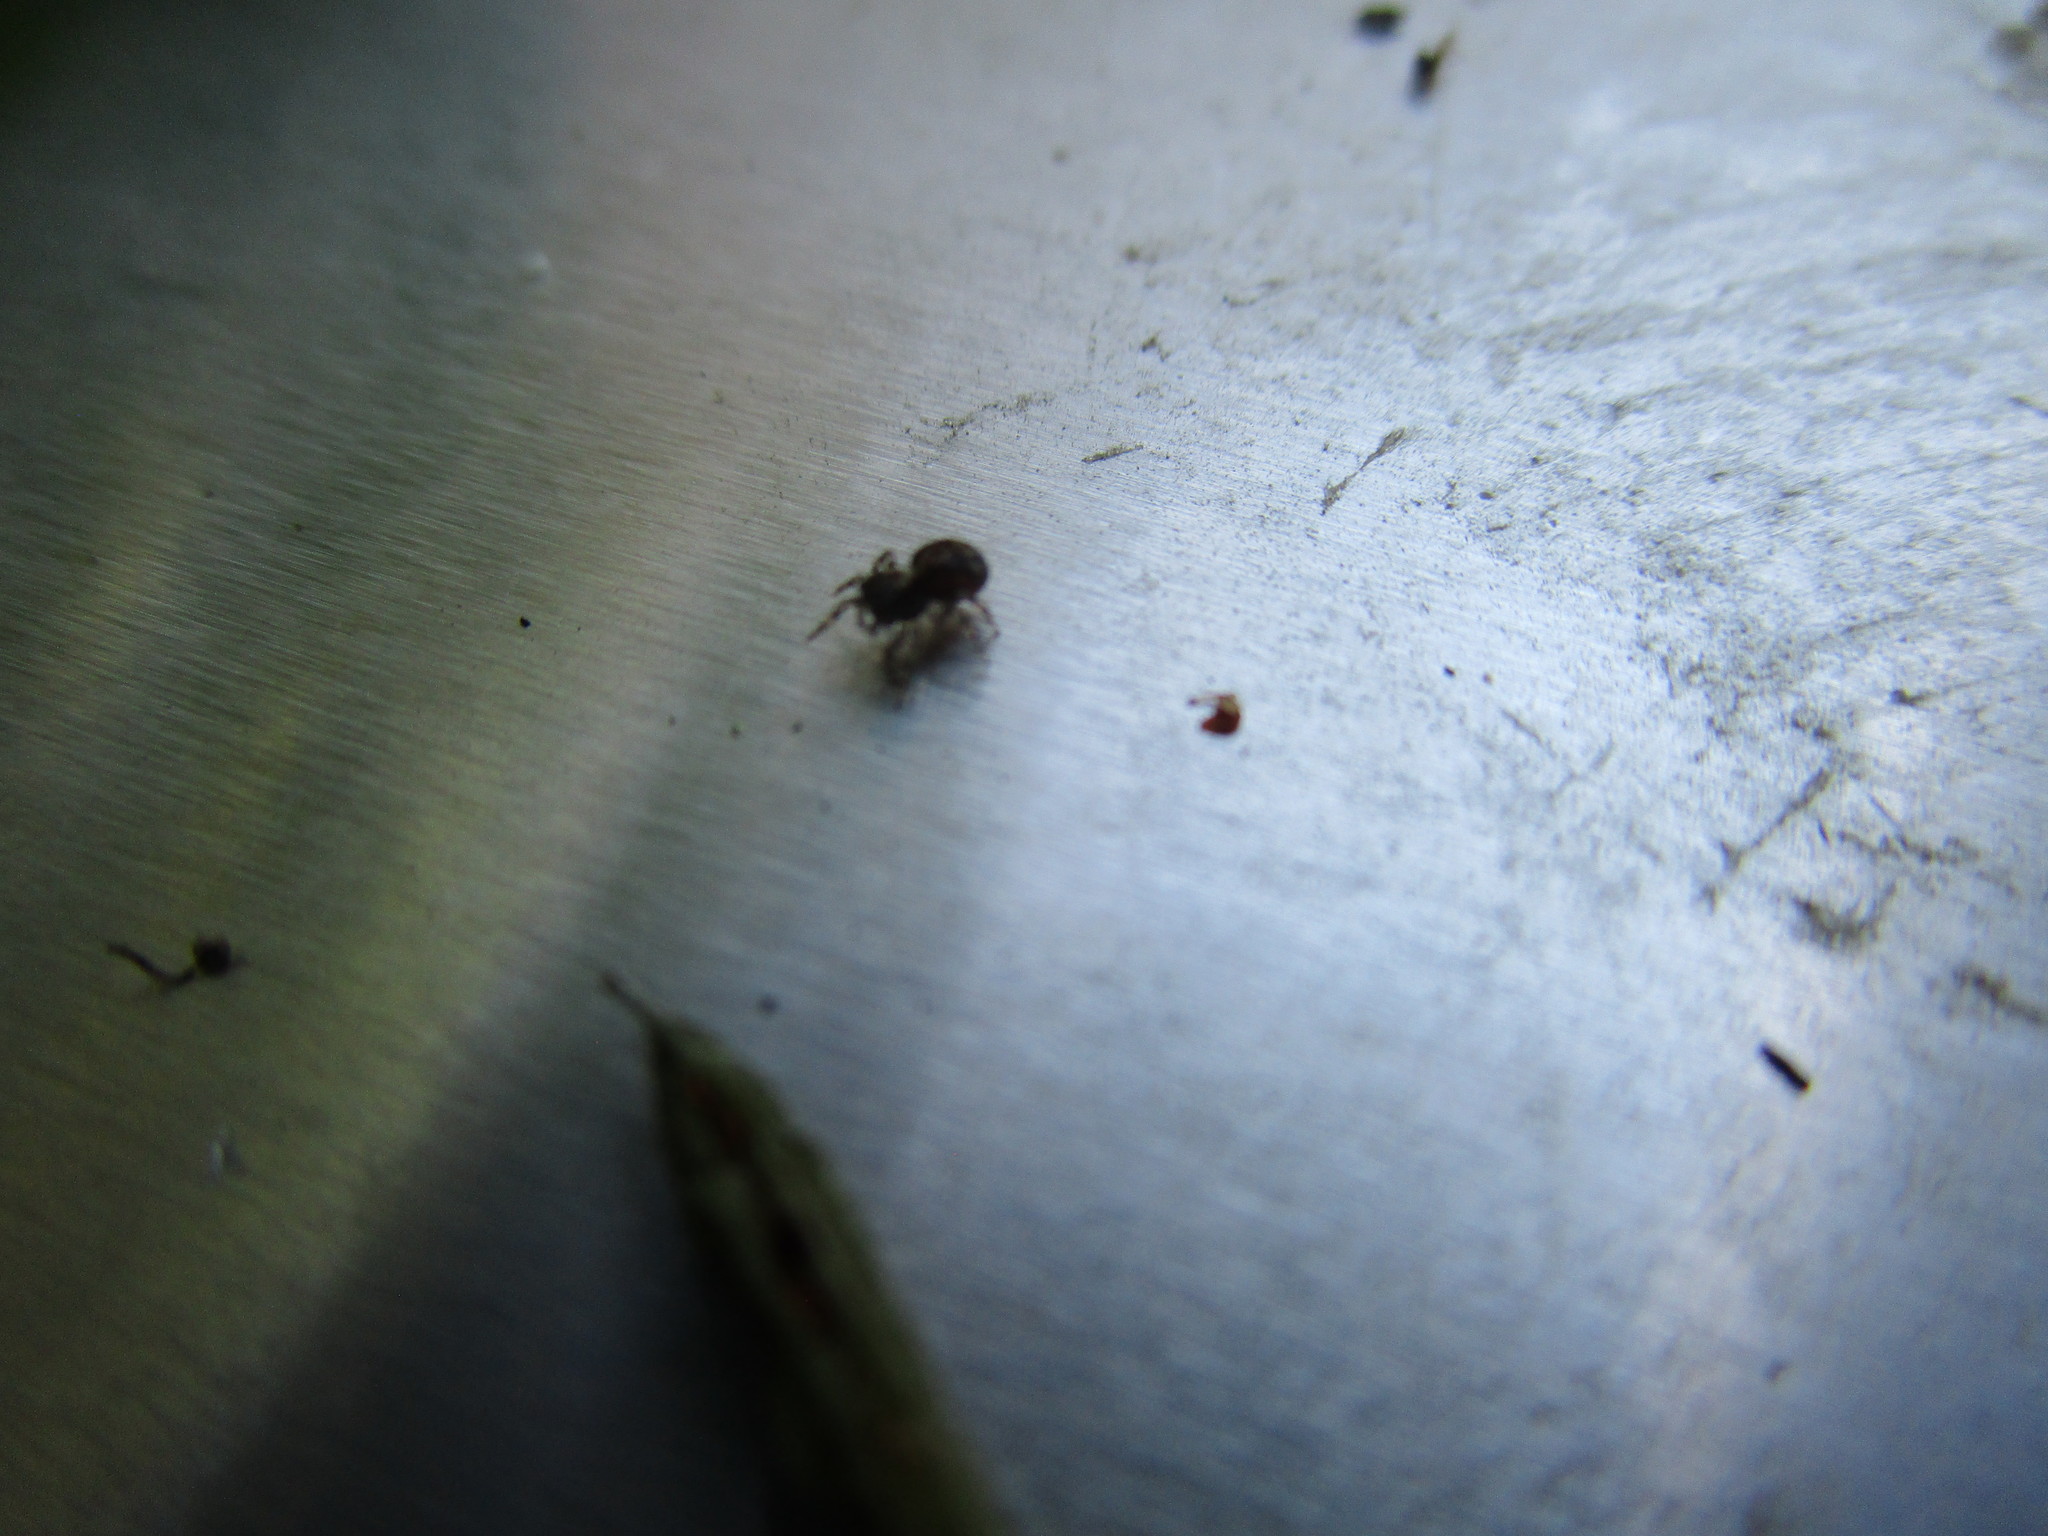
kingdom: Animalia
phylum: Arthropoda
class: Arachnida
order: Araneae
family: Salticidae
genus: Naphrys
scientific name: Naphrys pulex
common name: Flea jumping spider
